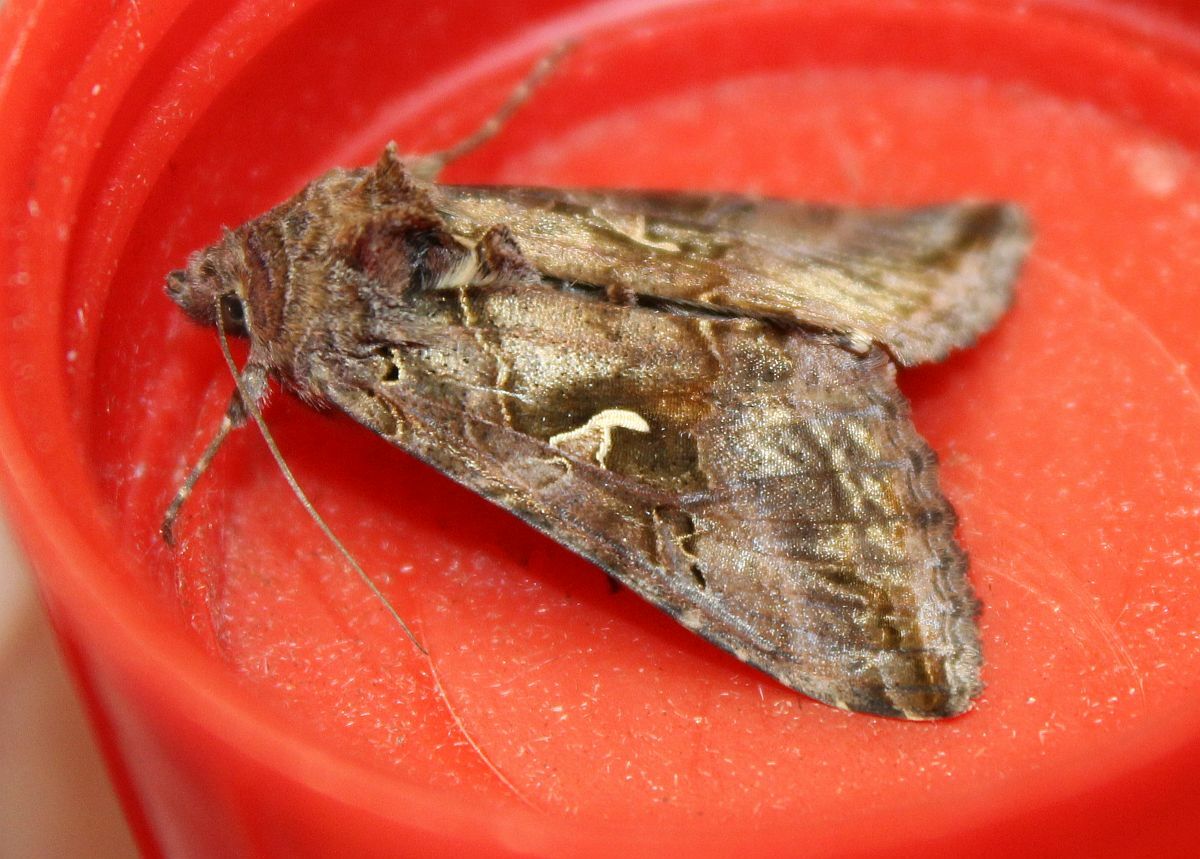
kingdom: Animalia
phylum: Arthropoda
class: Insecta
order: Lepidoptera
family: Noctuidae
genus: Autographa
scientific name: Autographa gamma
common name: Silver y
